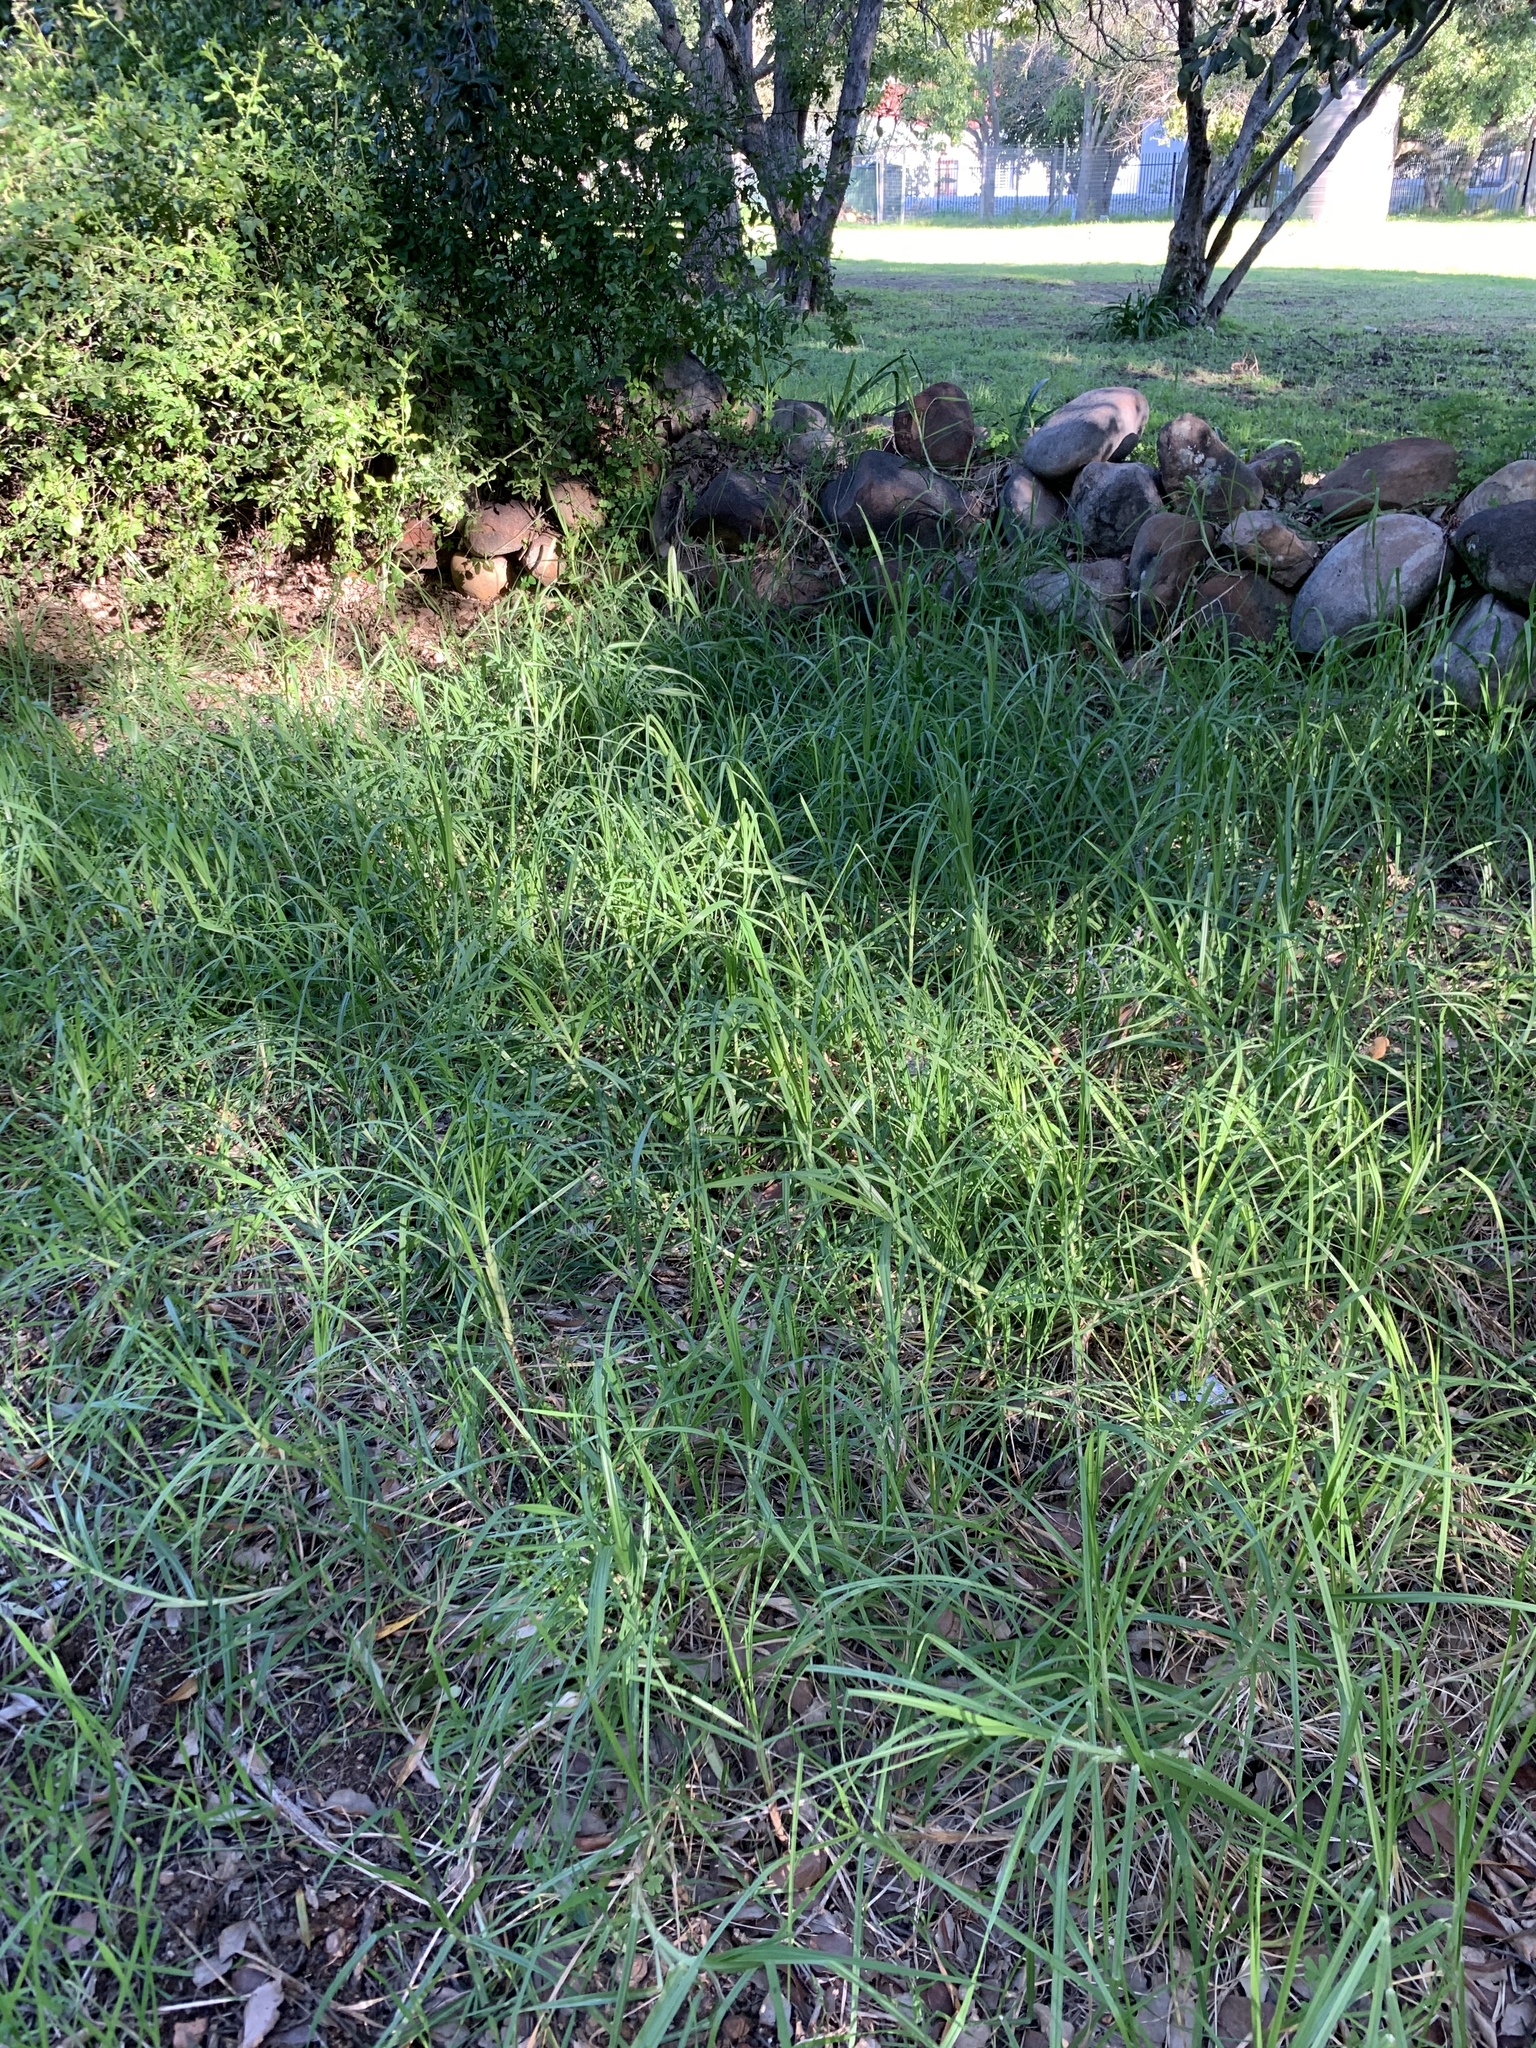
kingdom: Plantae
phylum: Tracheophyta
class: Liliopsida
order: Poales
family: Poaceae
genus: Cenchrus
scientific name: Cenchrus clandestinus
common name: Kikuyugrass
